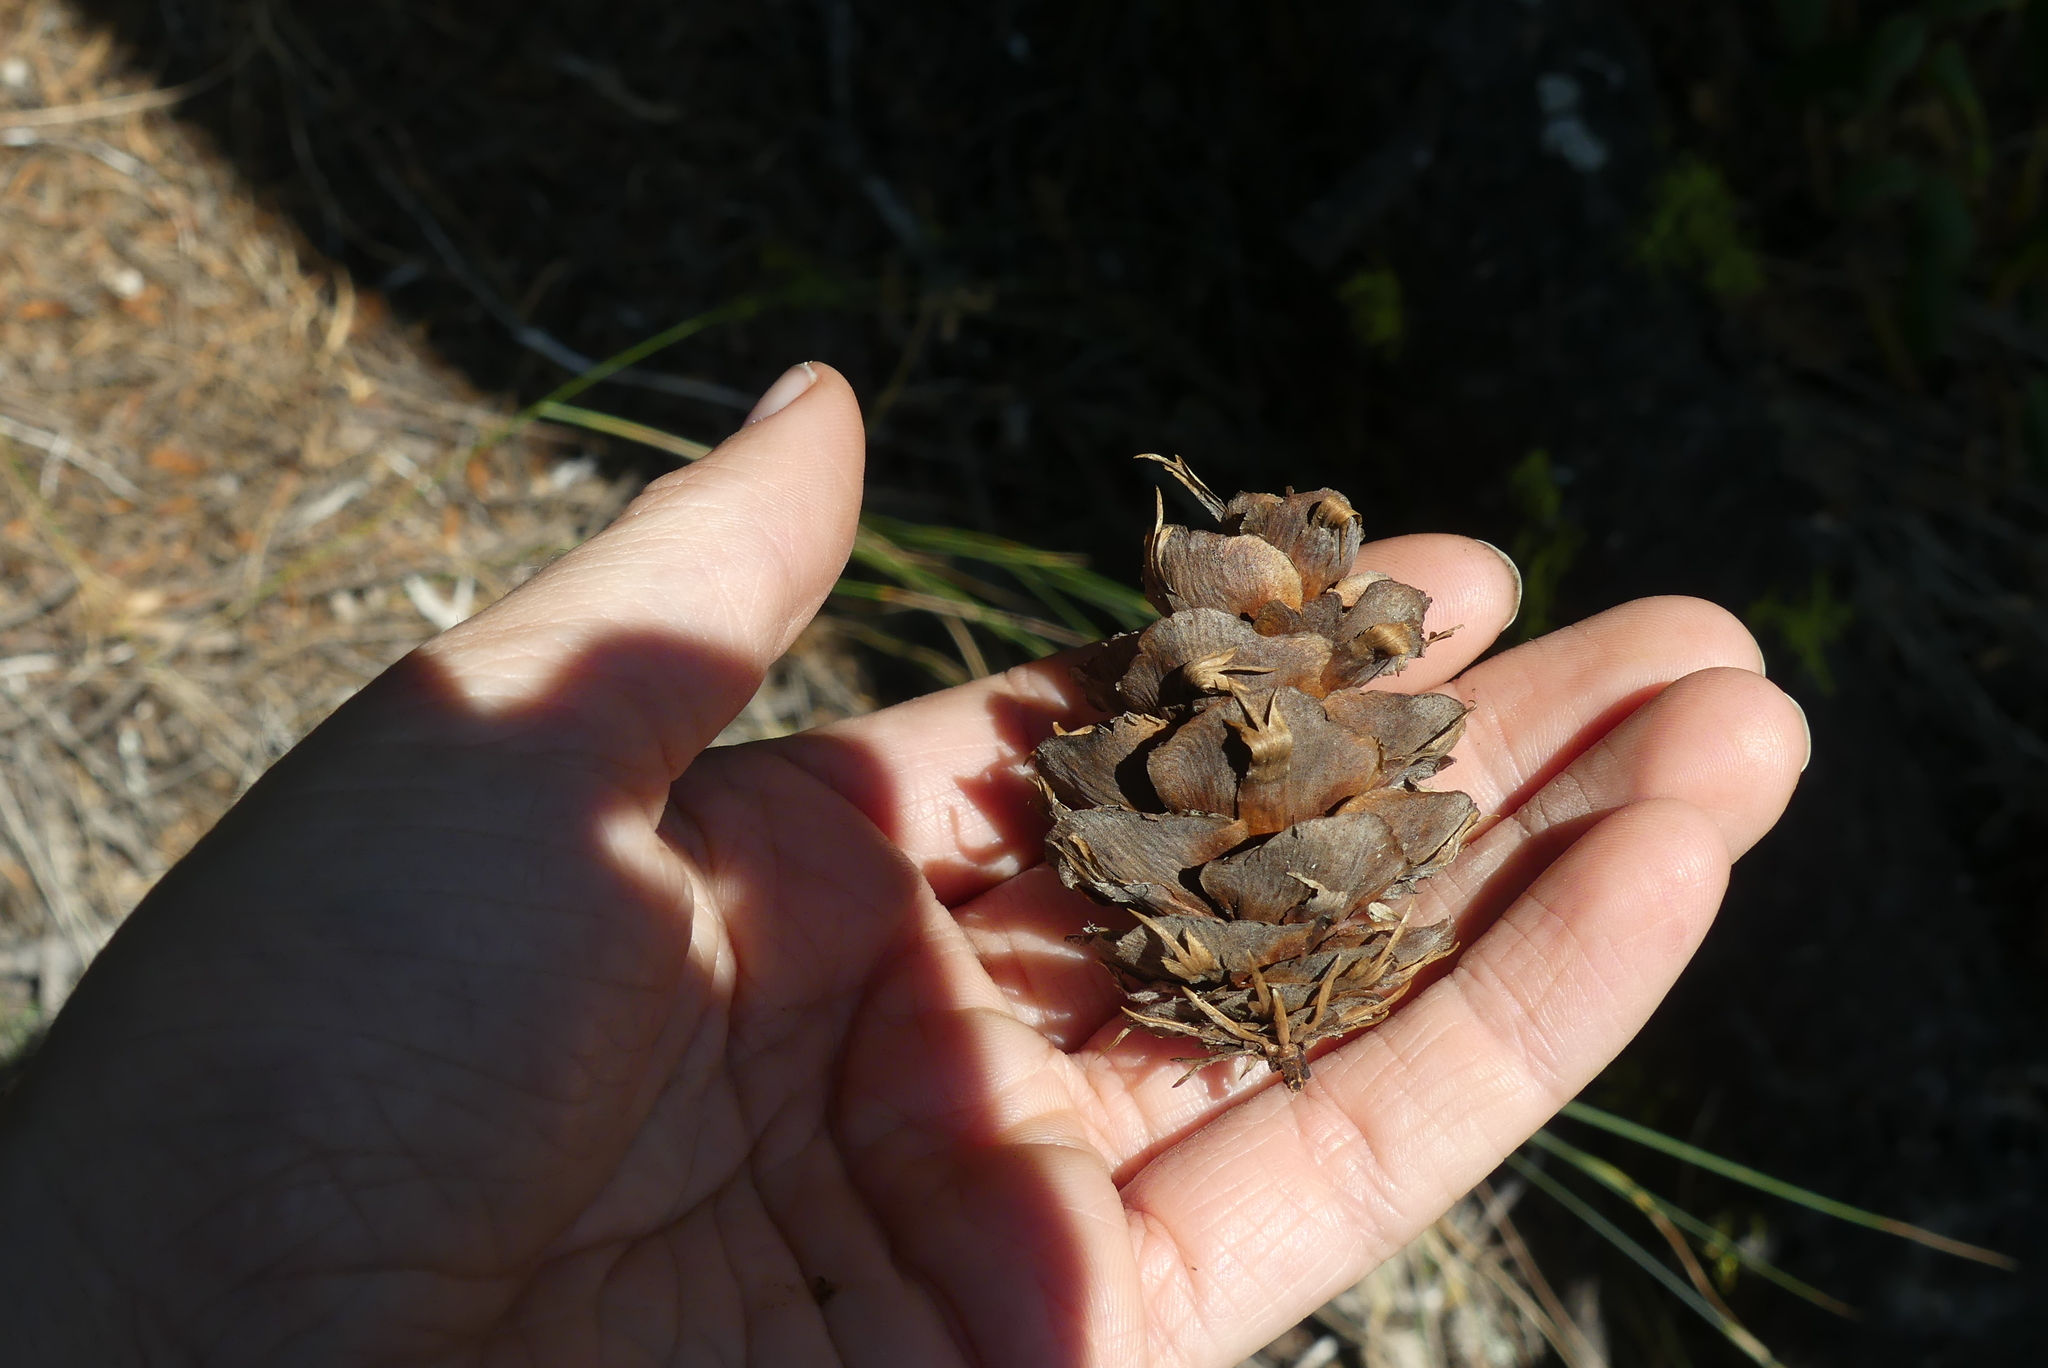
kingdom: Plantae
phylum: Tracheophyta
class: Pinopsida
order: Pinales
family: Pinaceae
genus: Pseudotsuga
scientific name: Pseudotsuga menziesii
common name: Douglas fir
